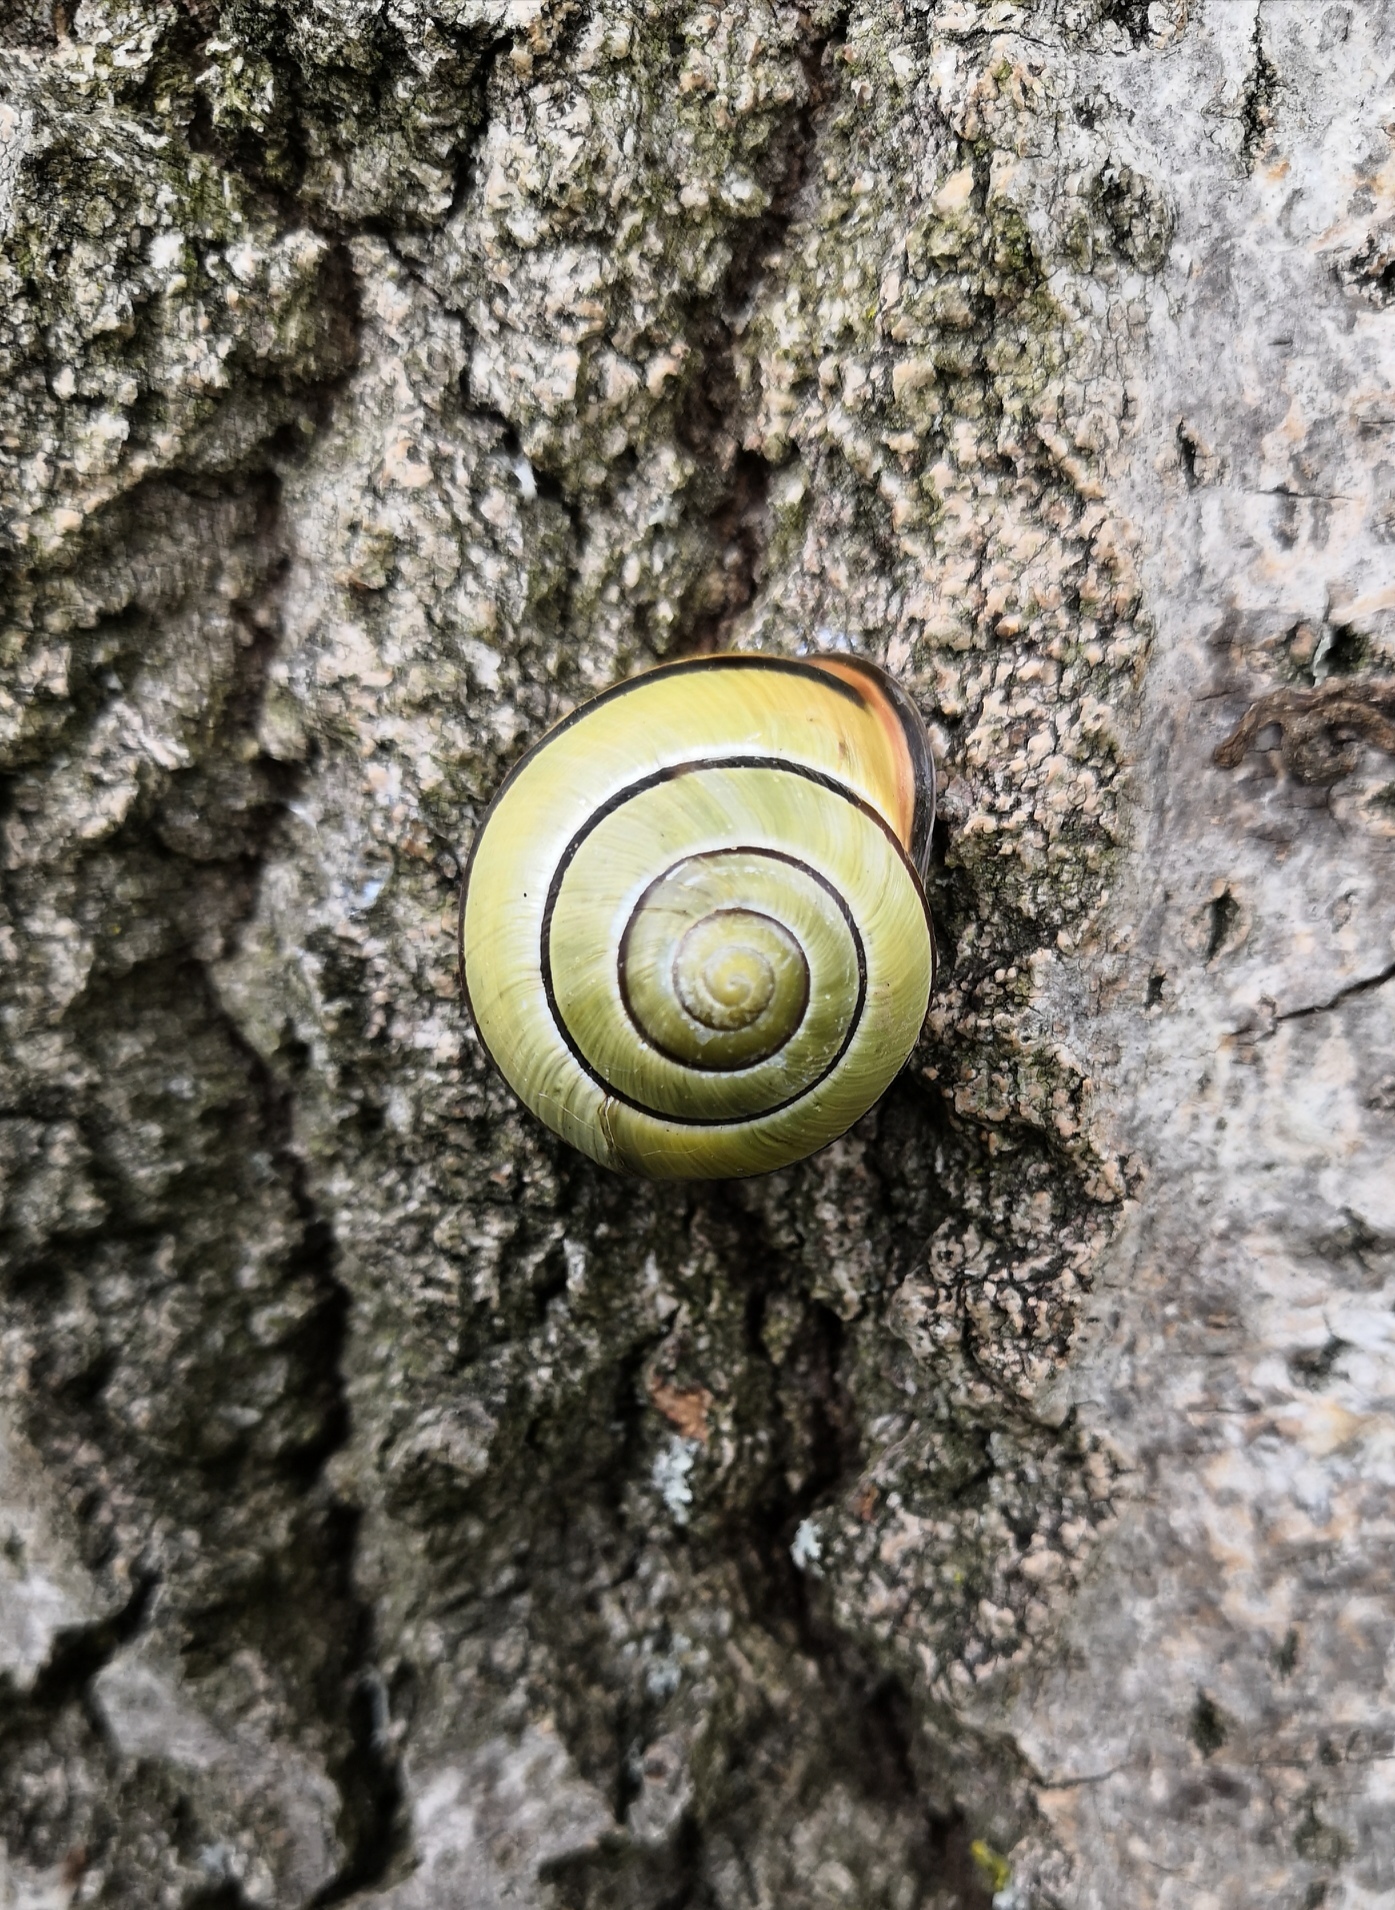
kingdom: Animalia
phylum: Mollusca
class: Gastropoda
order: Stylommatophora
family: Helicidae
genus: Cepaea
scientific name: Cepaea nemoralis
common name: Grovesnail
